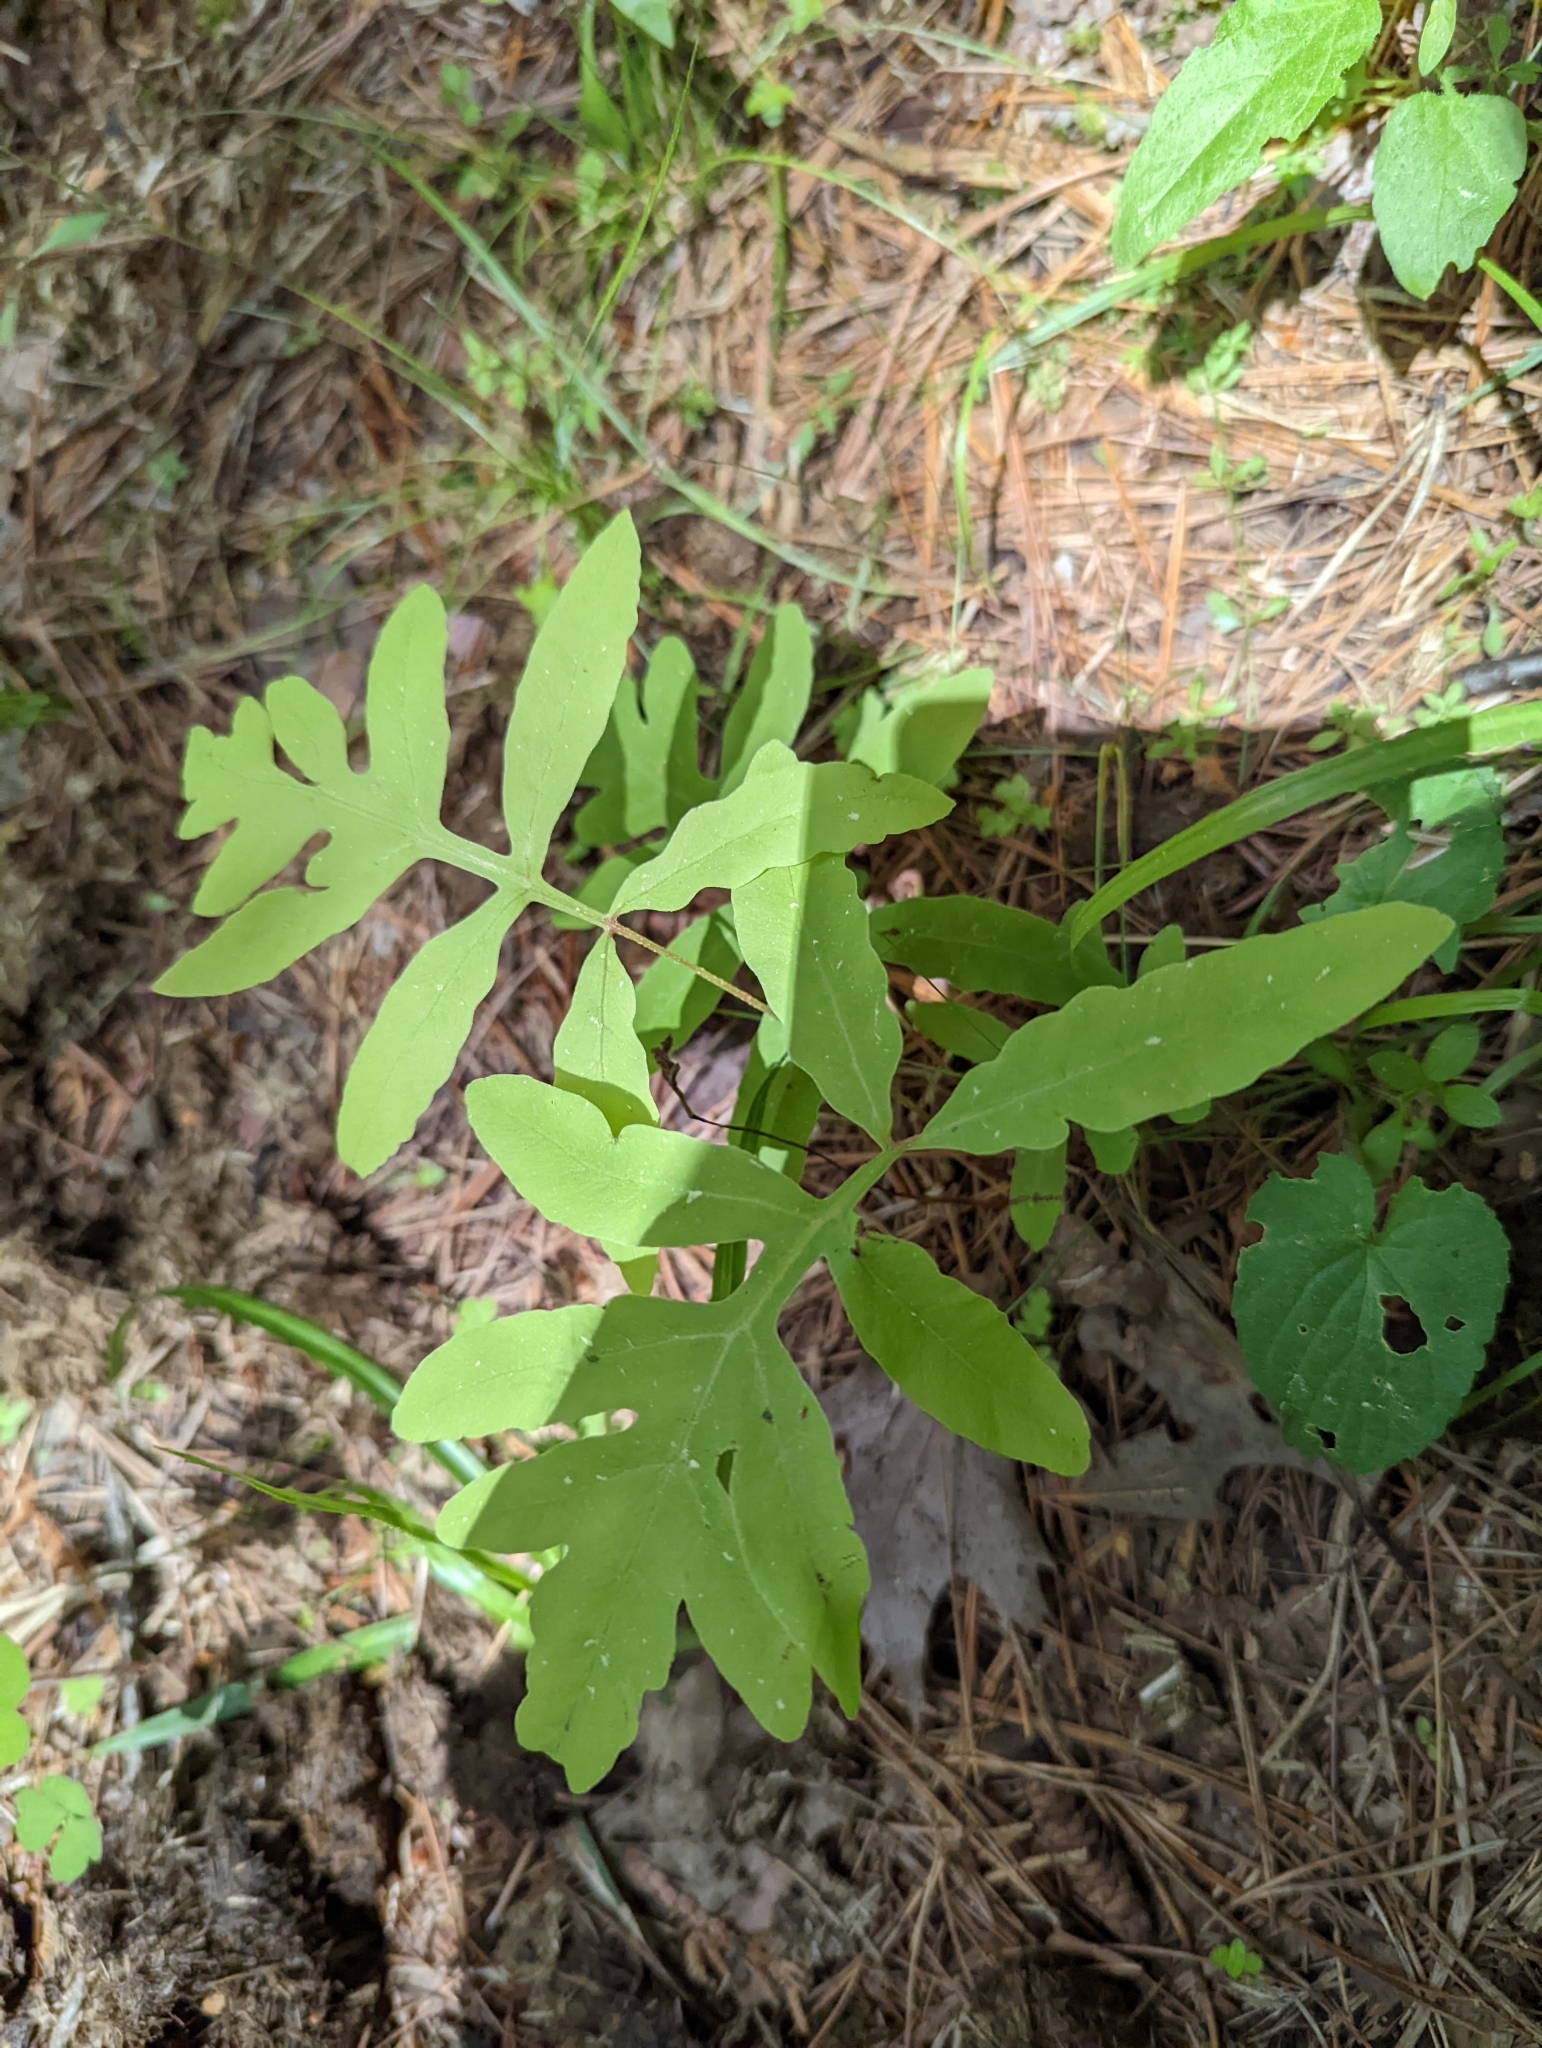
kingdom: Plantae
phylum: Tracheophyta
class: Polypodiopsida
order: Polypodiales
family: Onocleaceae
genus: Onoclea
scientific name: Onoclea sensibilis
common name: Sensitive fern
